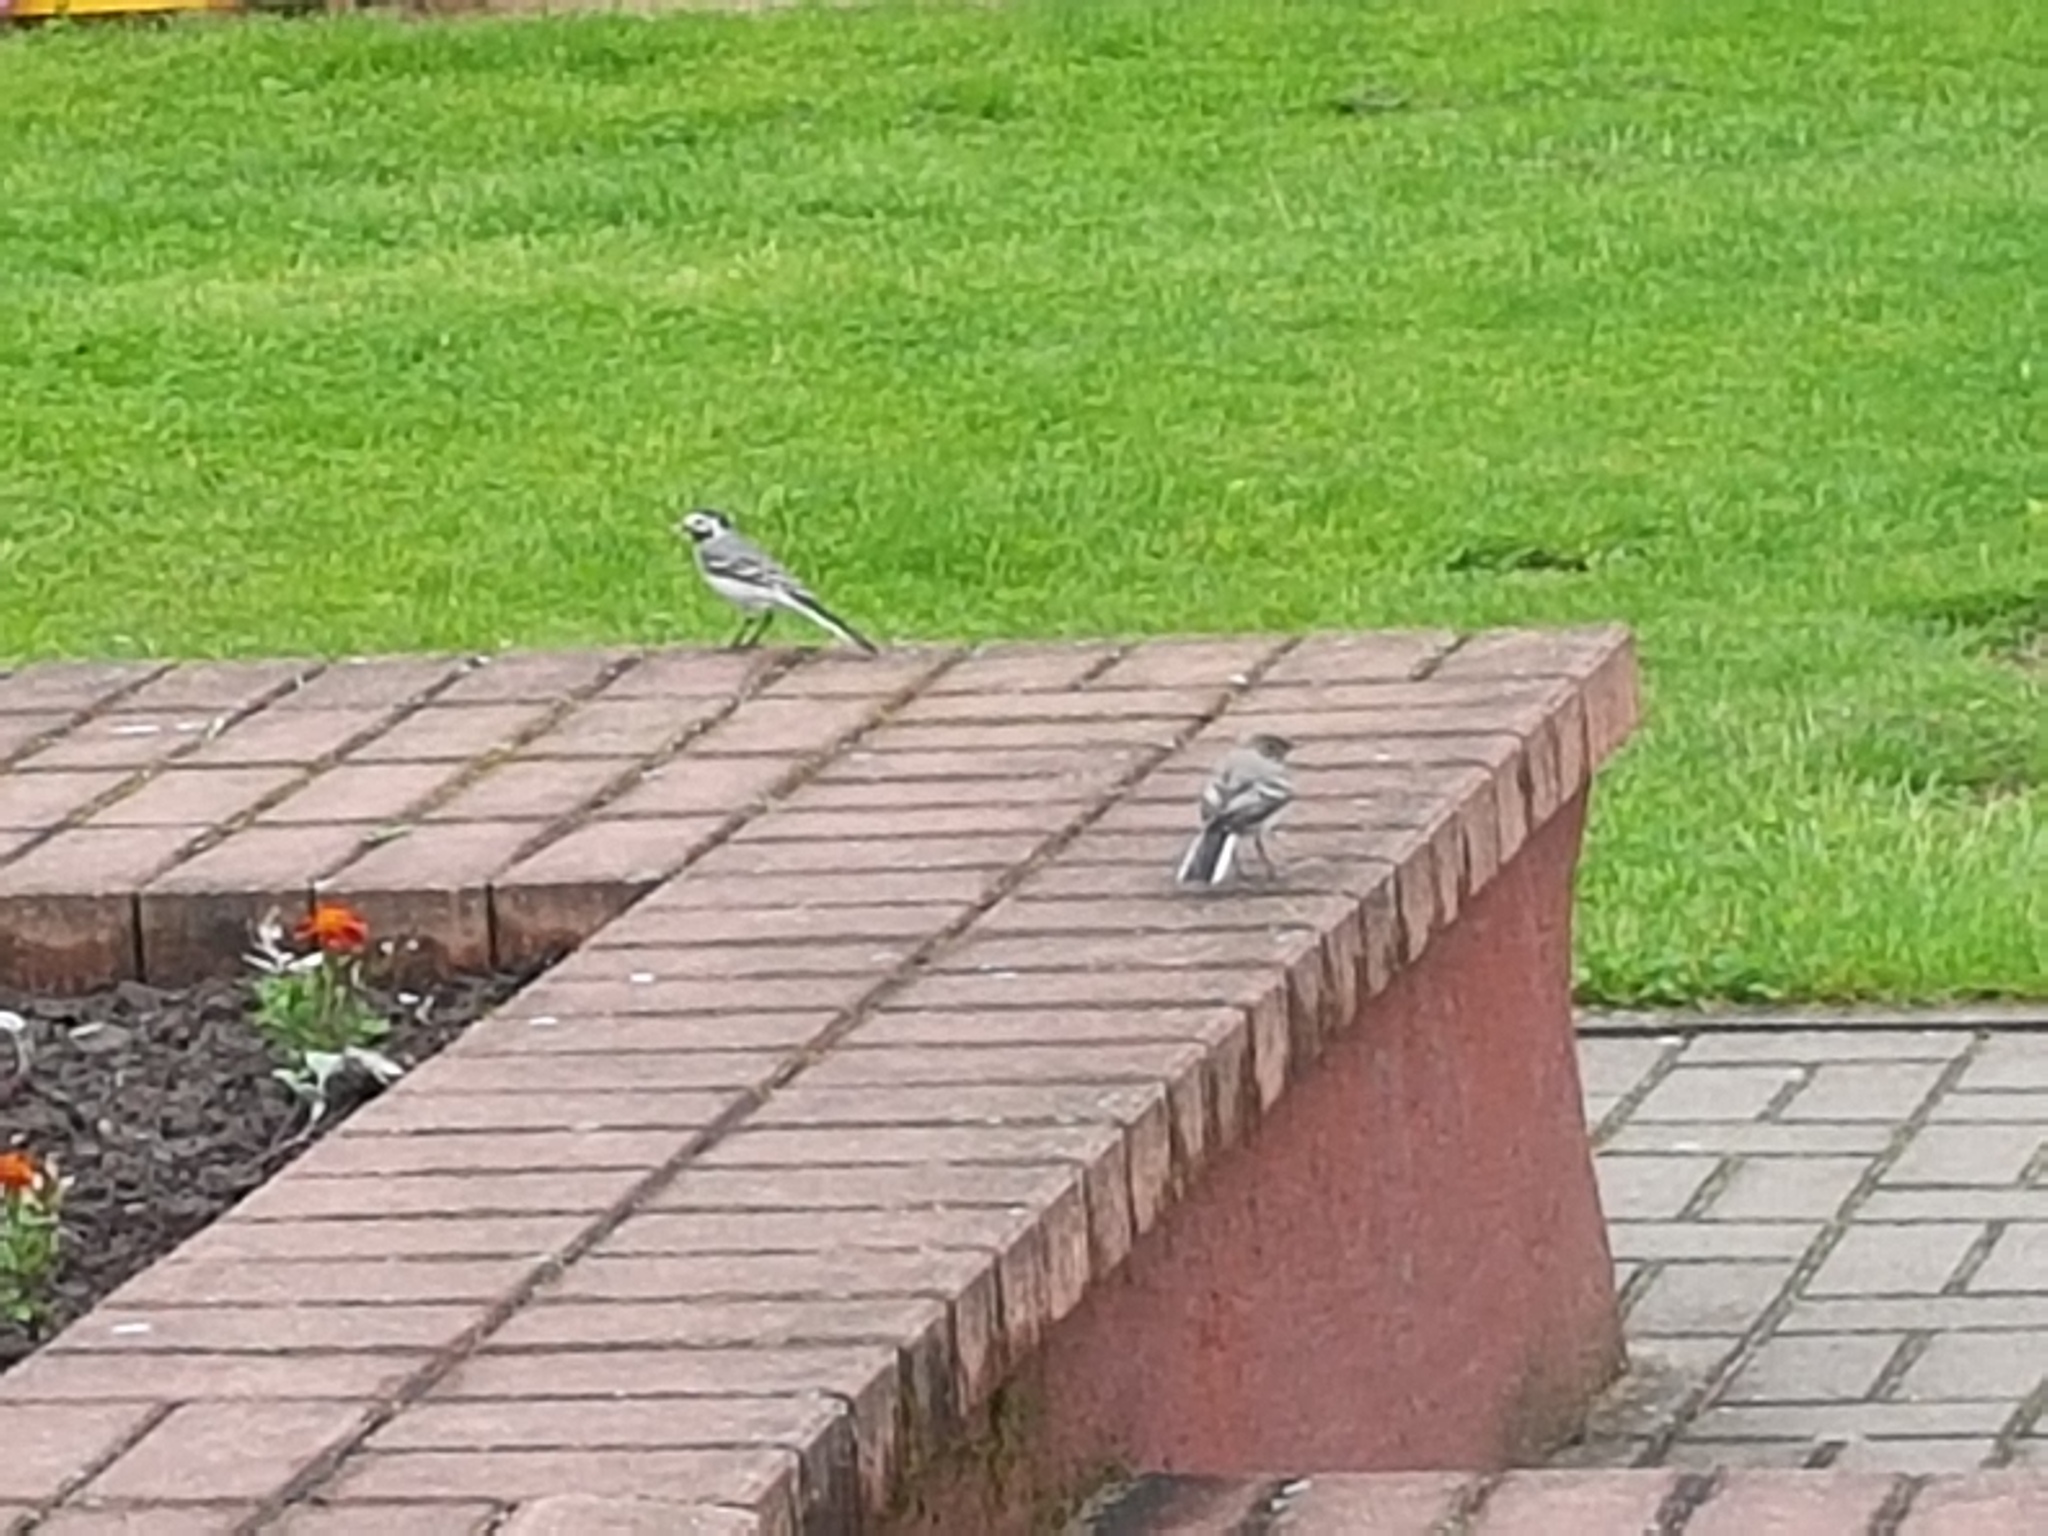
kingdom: Animalia
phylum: Chordata
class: Aves
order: Passeriformes
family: Motacillidae
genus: Motacilla
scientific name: Motacilla alba
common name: White wagtail
